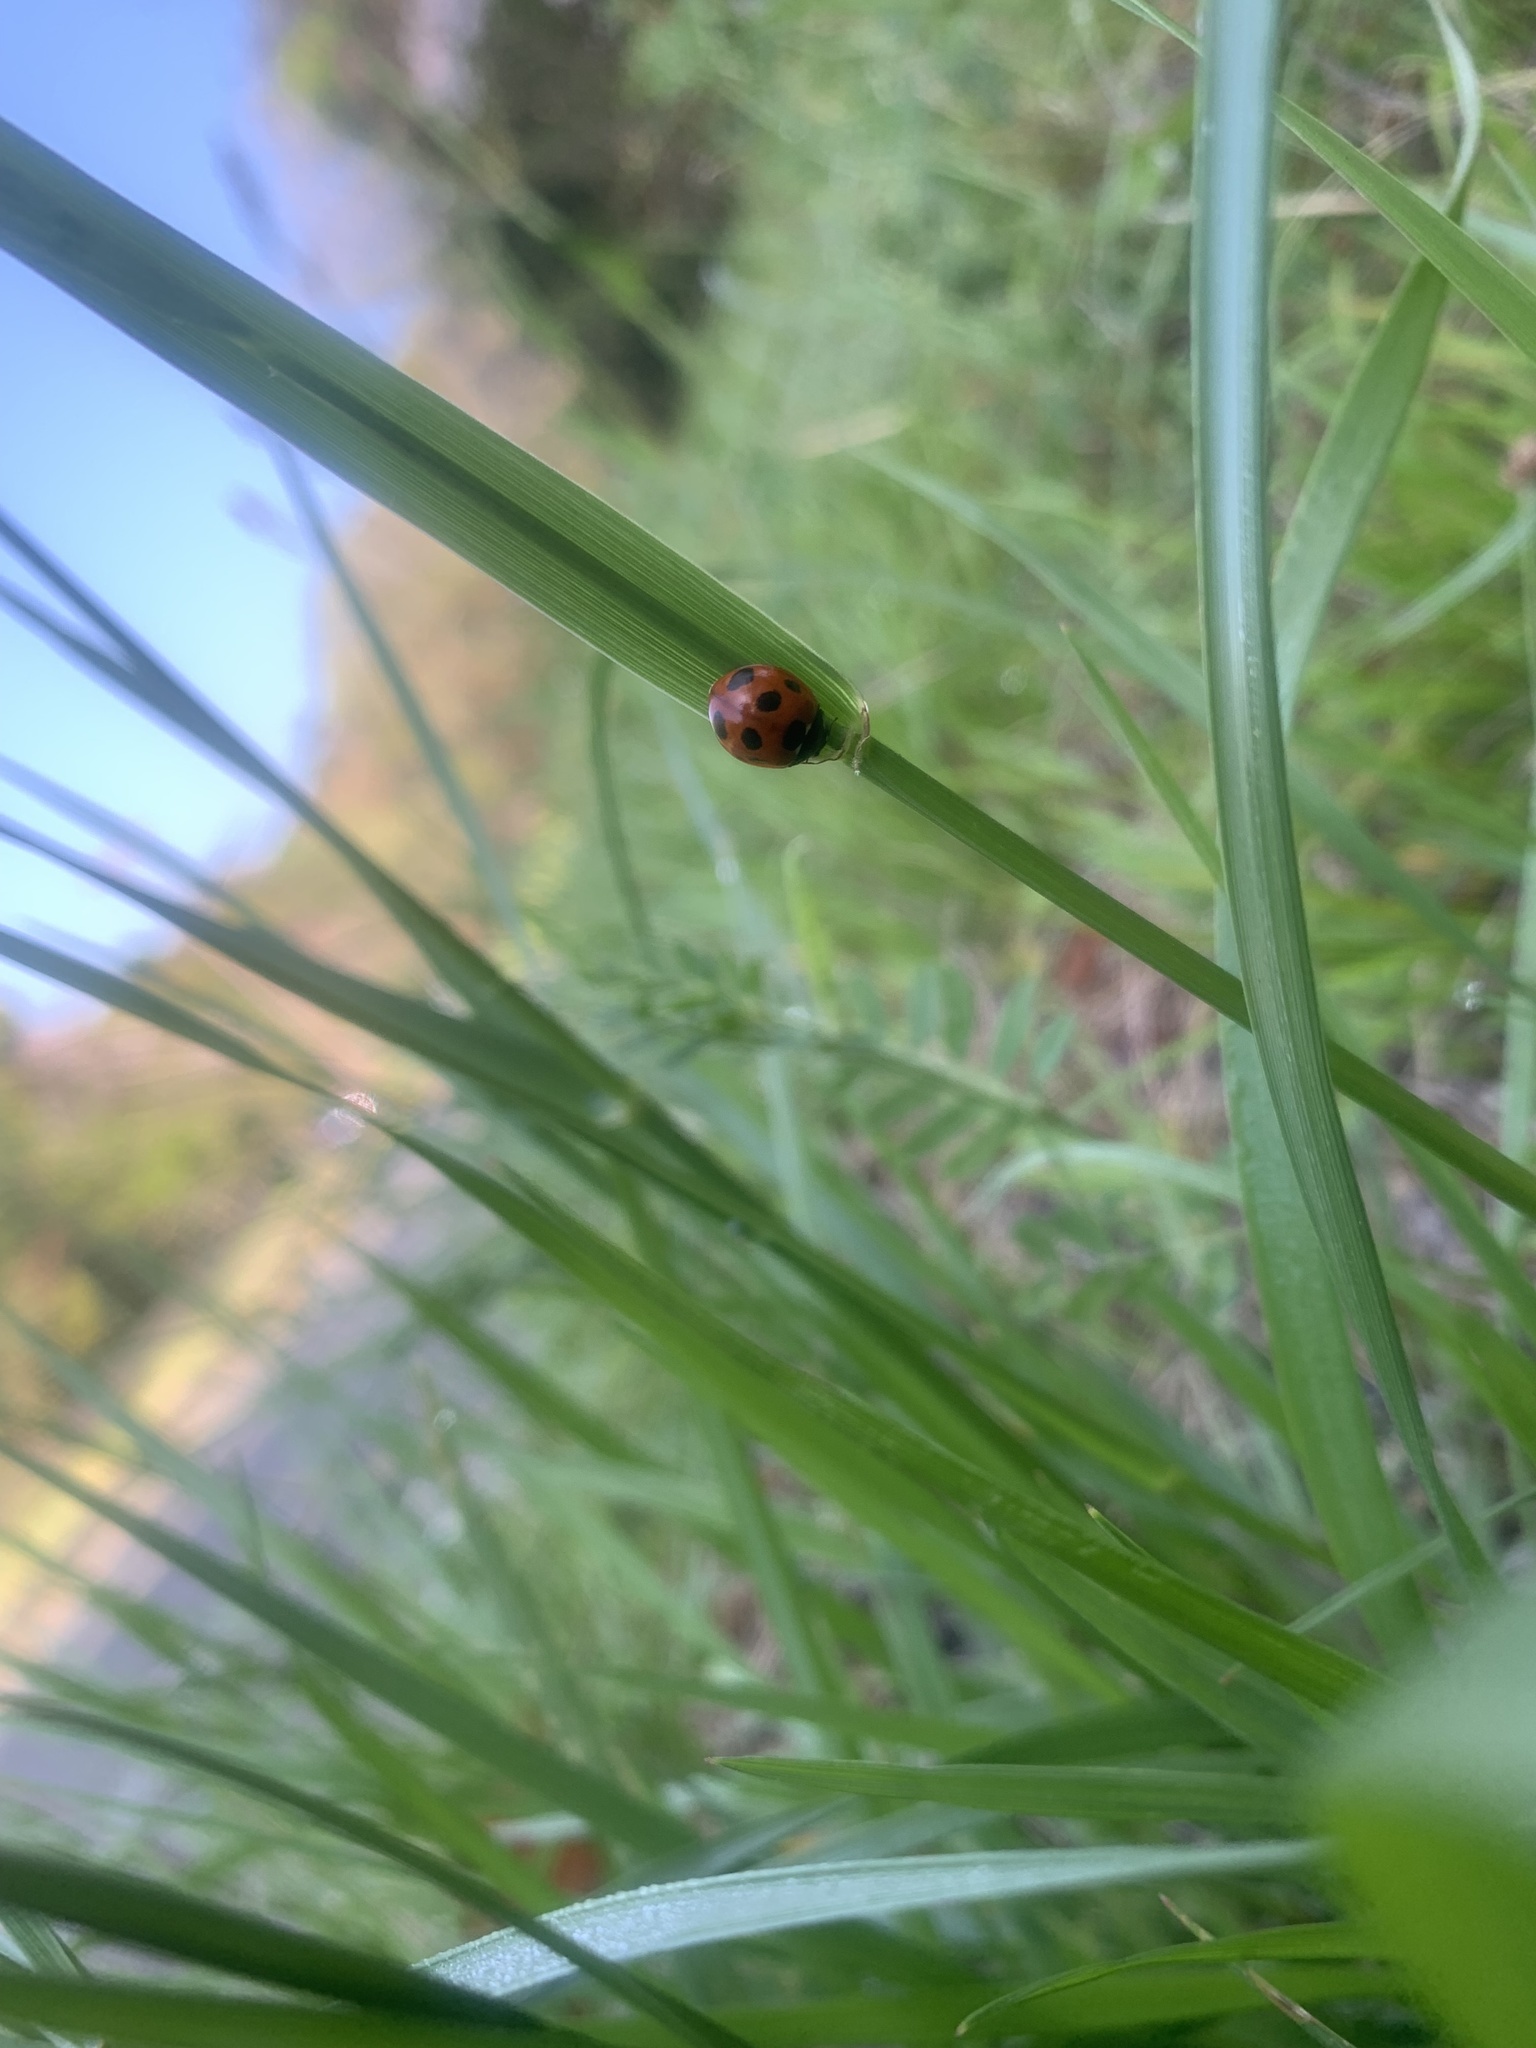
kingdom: Animalia
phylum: Arthropoda
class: Insecta
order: Coleoptera
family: Coccinellidae
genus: Coccinella
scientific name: Coccinella septempunctata
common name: Sevenspotted lady beetle
